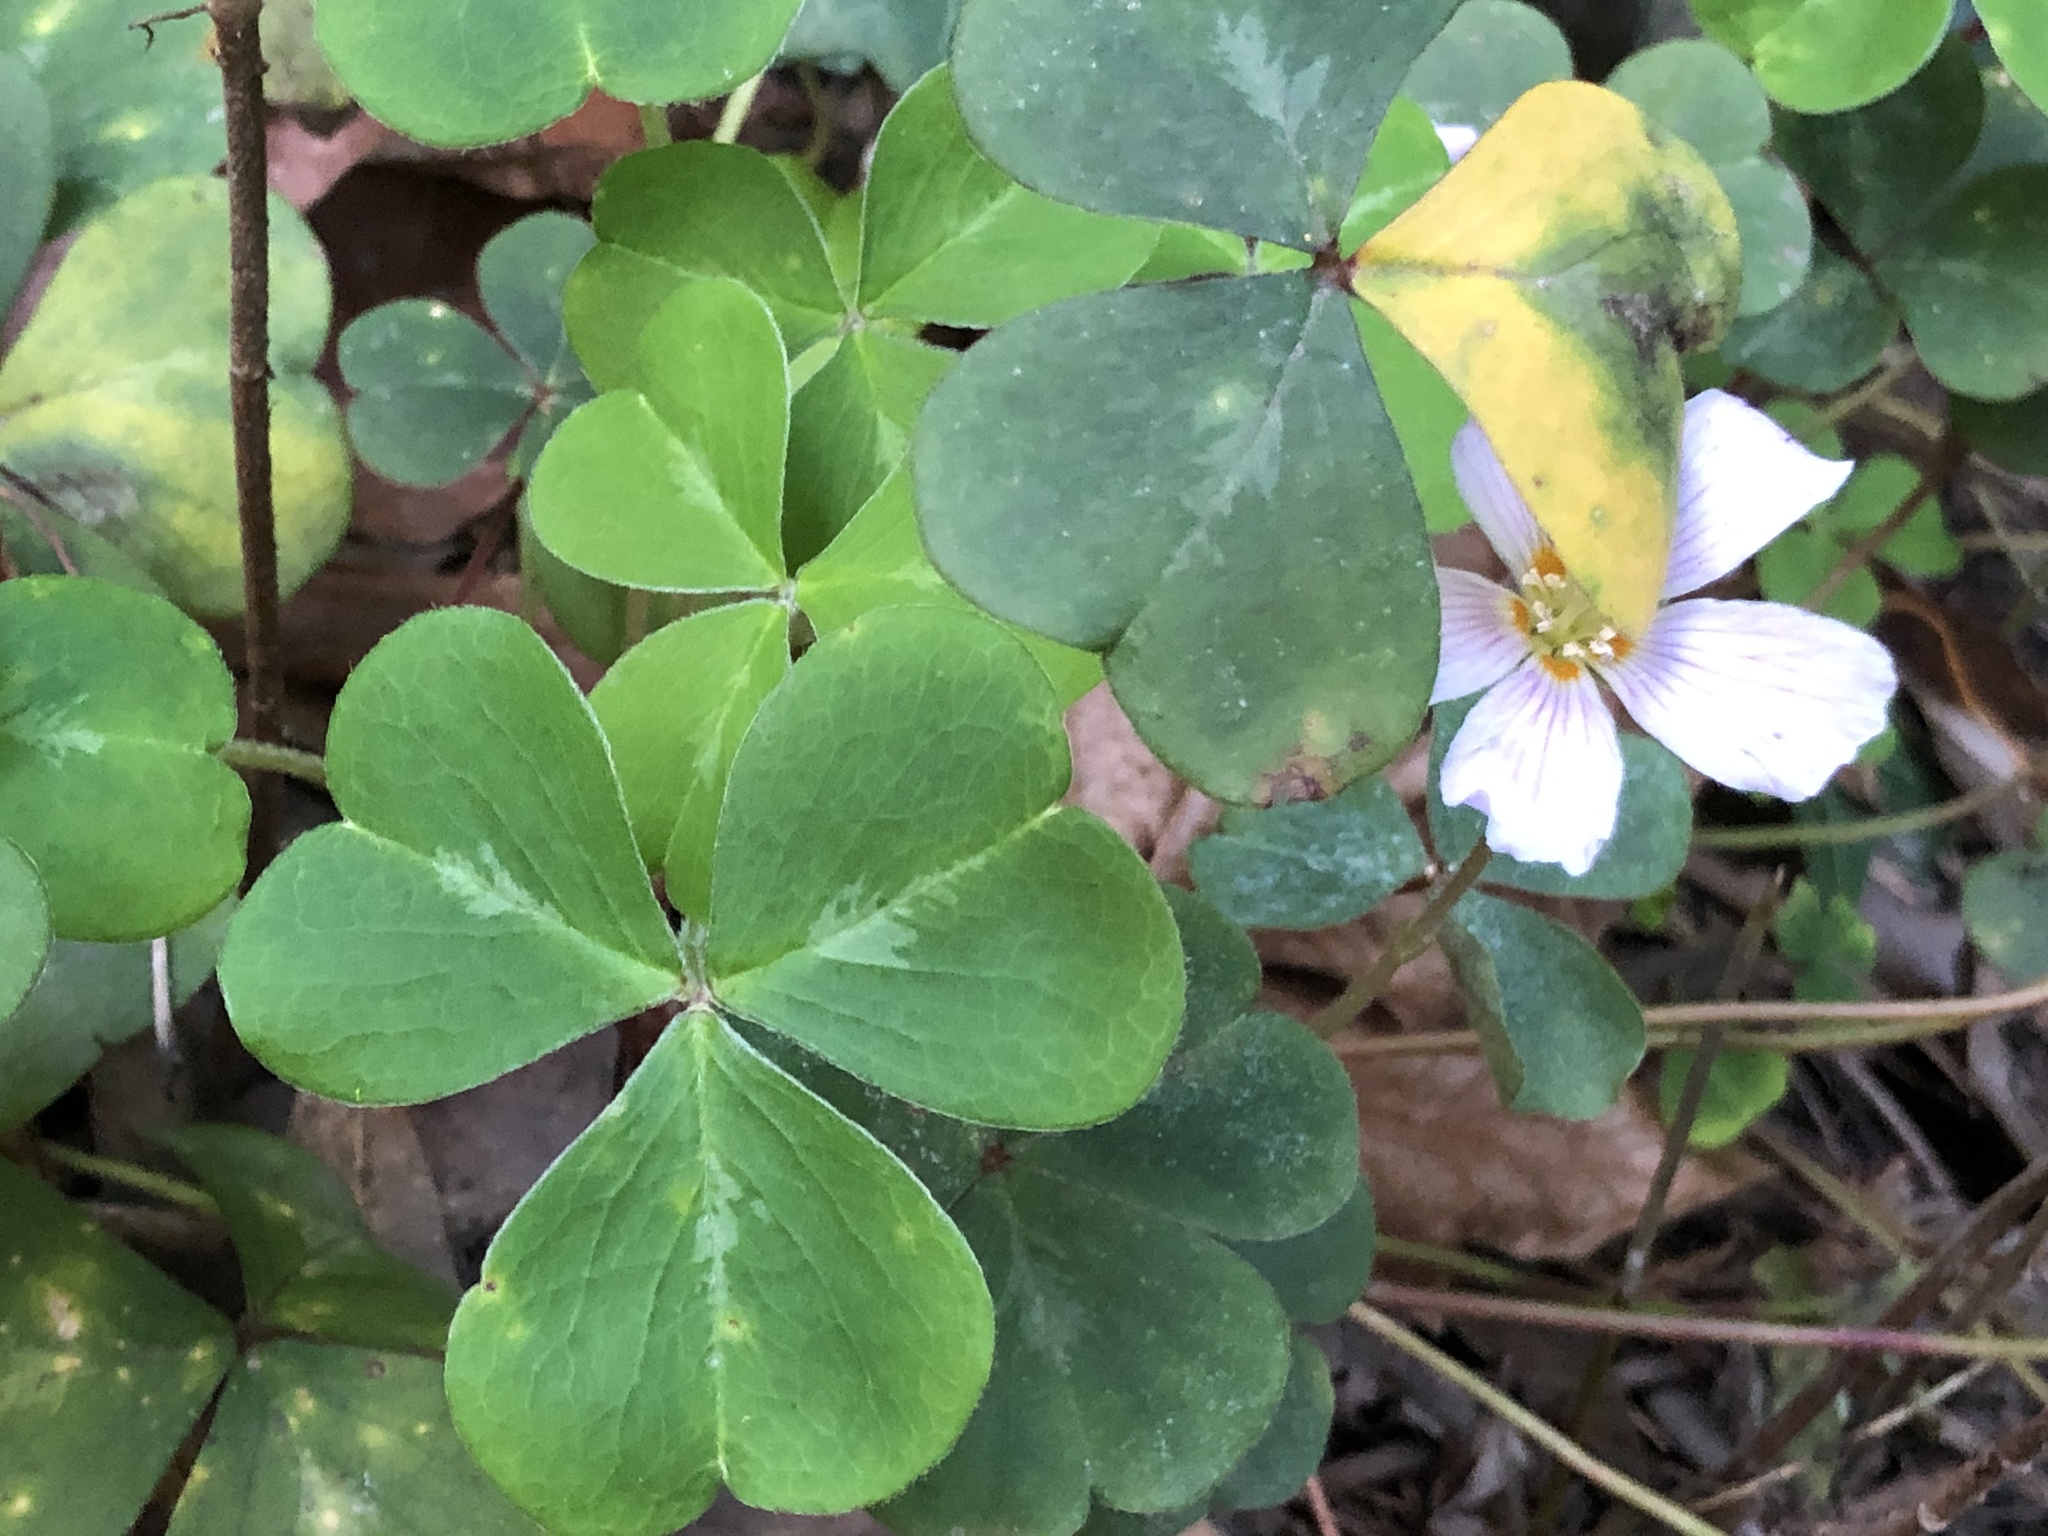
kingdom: Plantae
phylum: Tracheophyta
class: Magnoliopsida
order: Oxalidales
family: Oxalidaceae
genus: Oxalis
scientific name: Oxalis oregana
